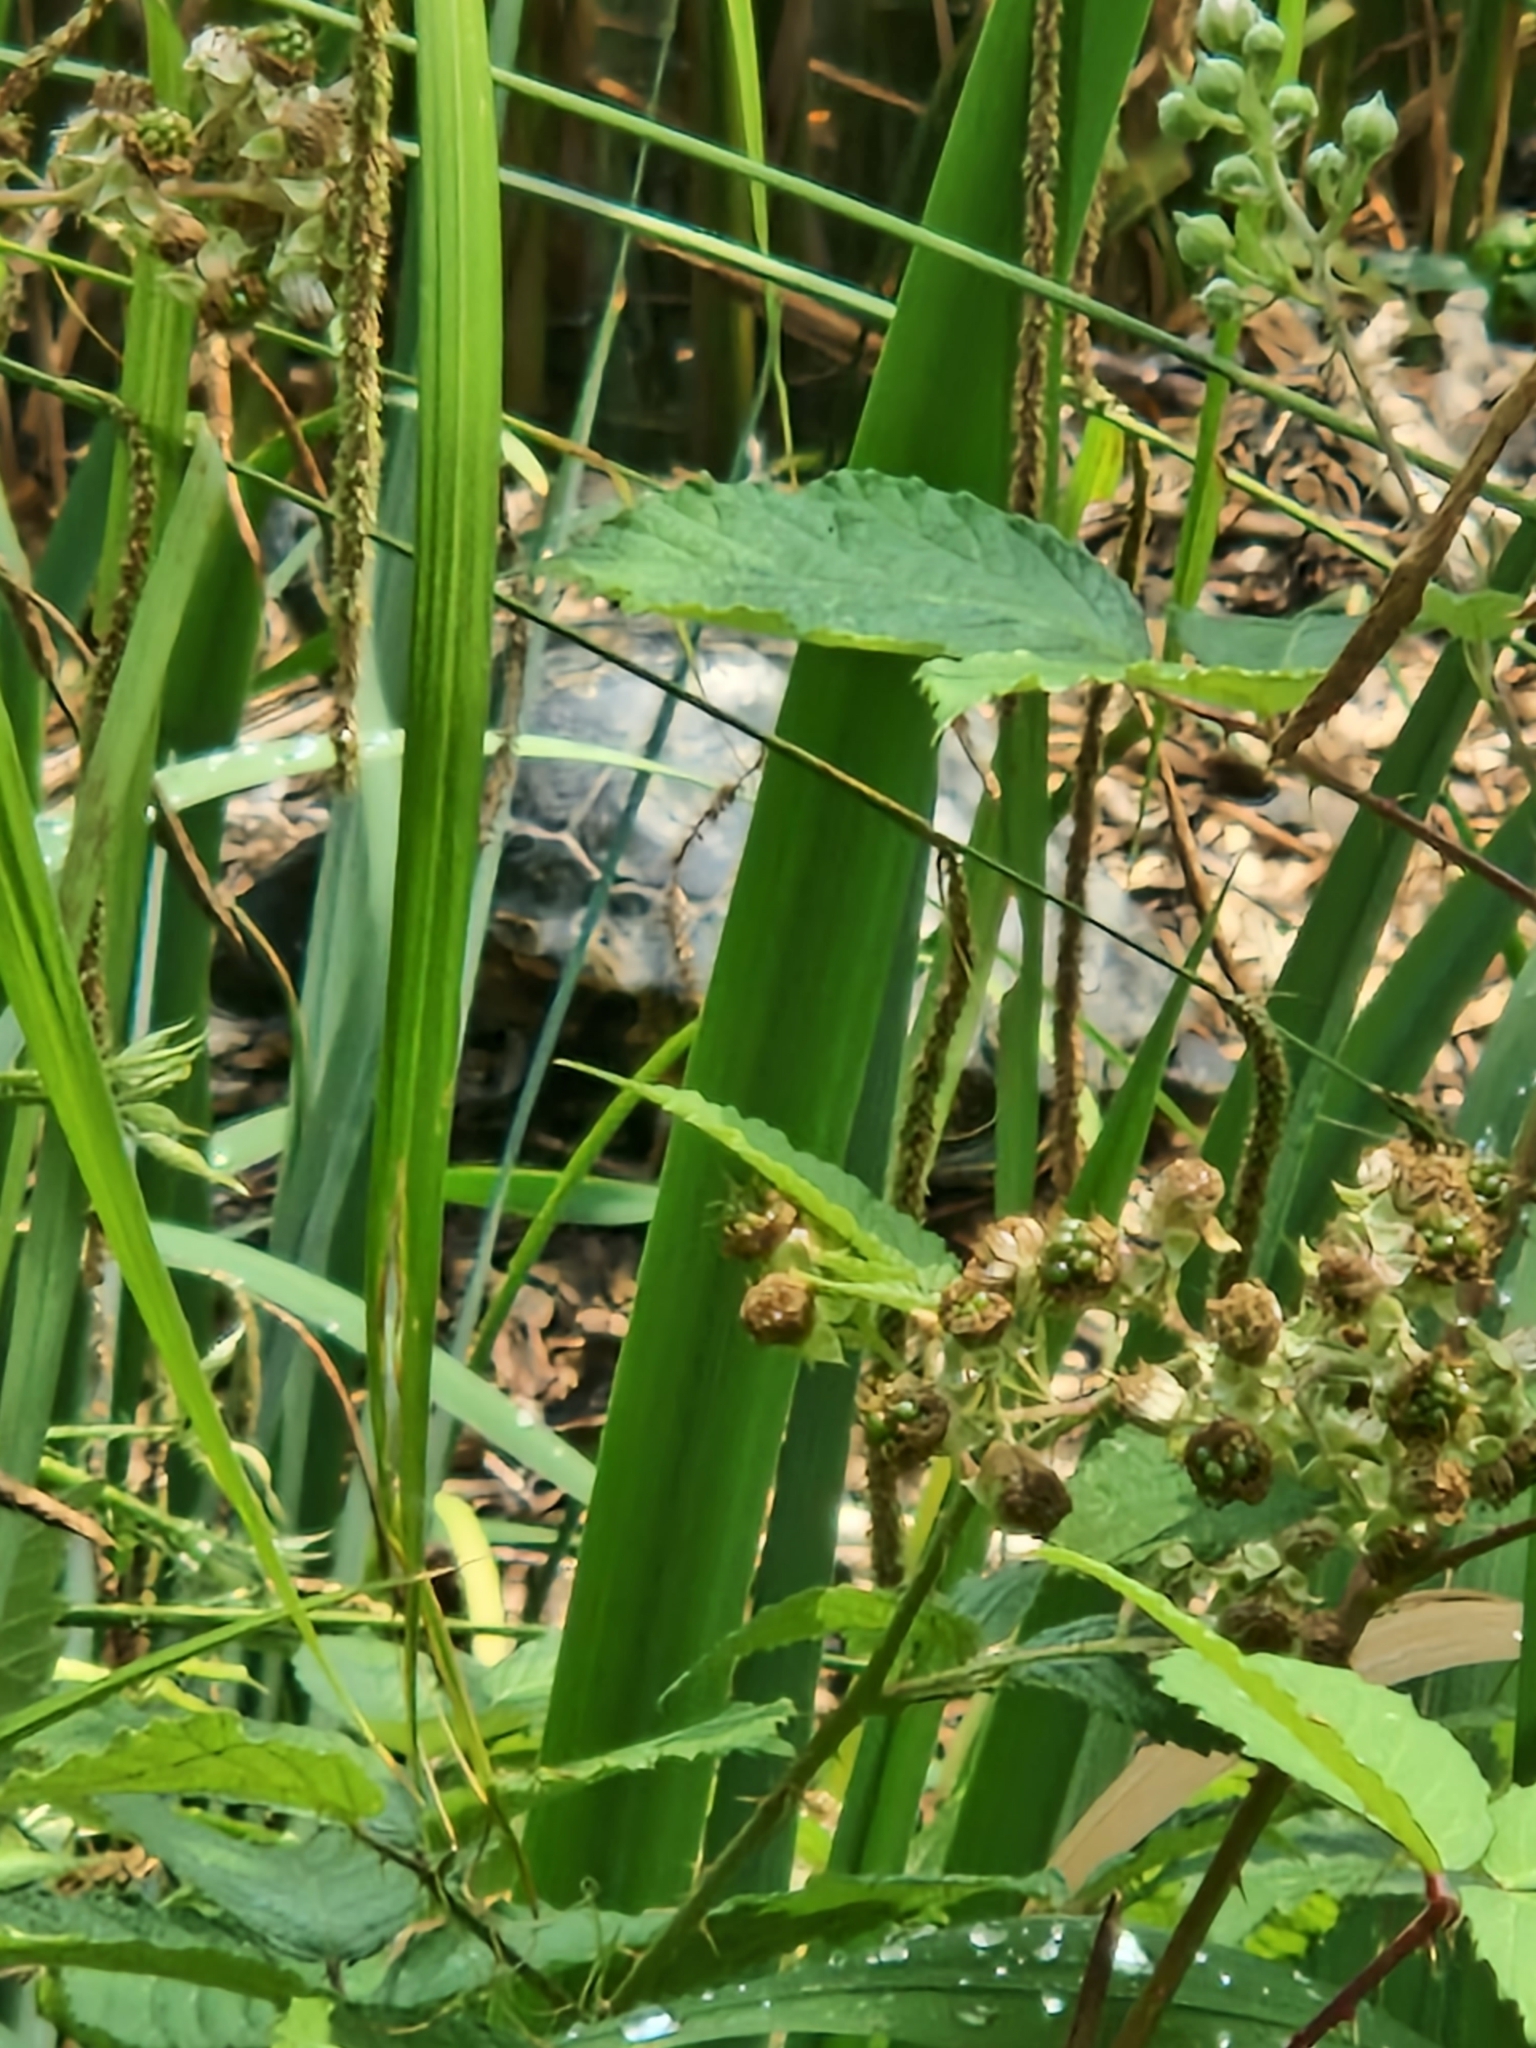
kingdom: Animalia
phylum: Chordata
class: Testudines
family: Emydidae
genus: Trachemys
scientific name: Trachemys scripta
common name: Slider
